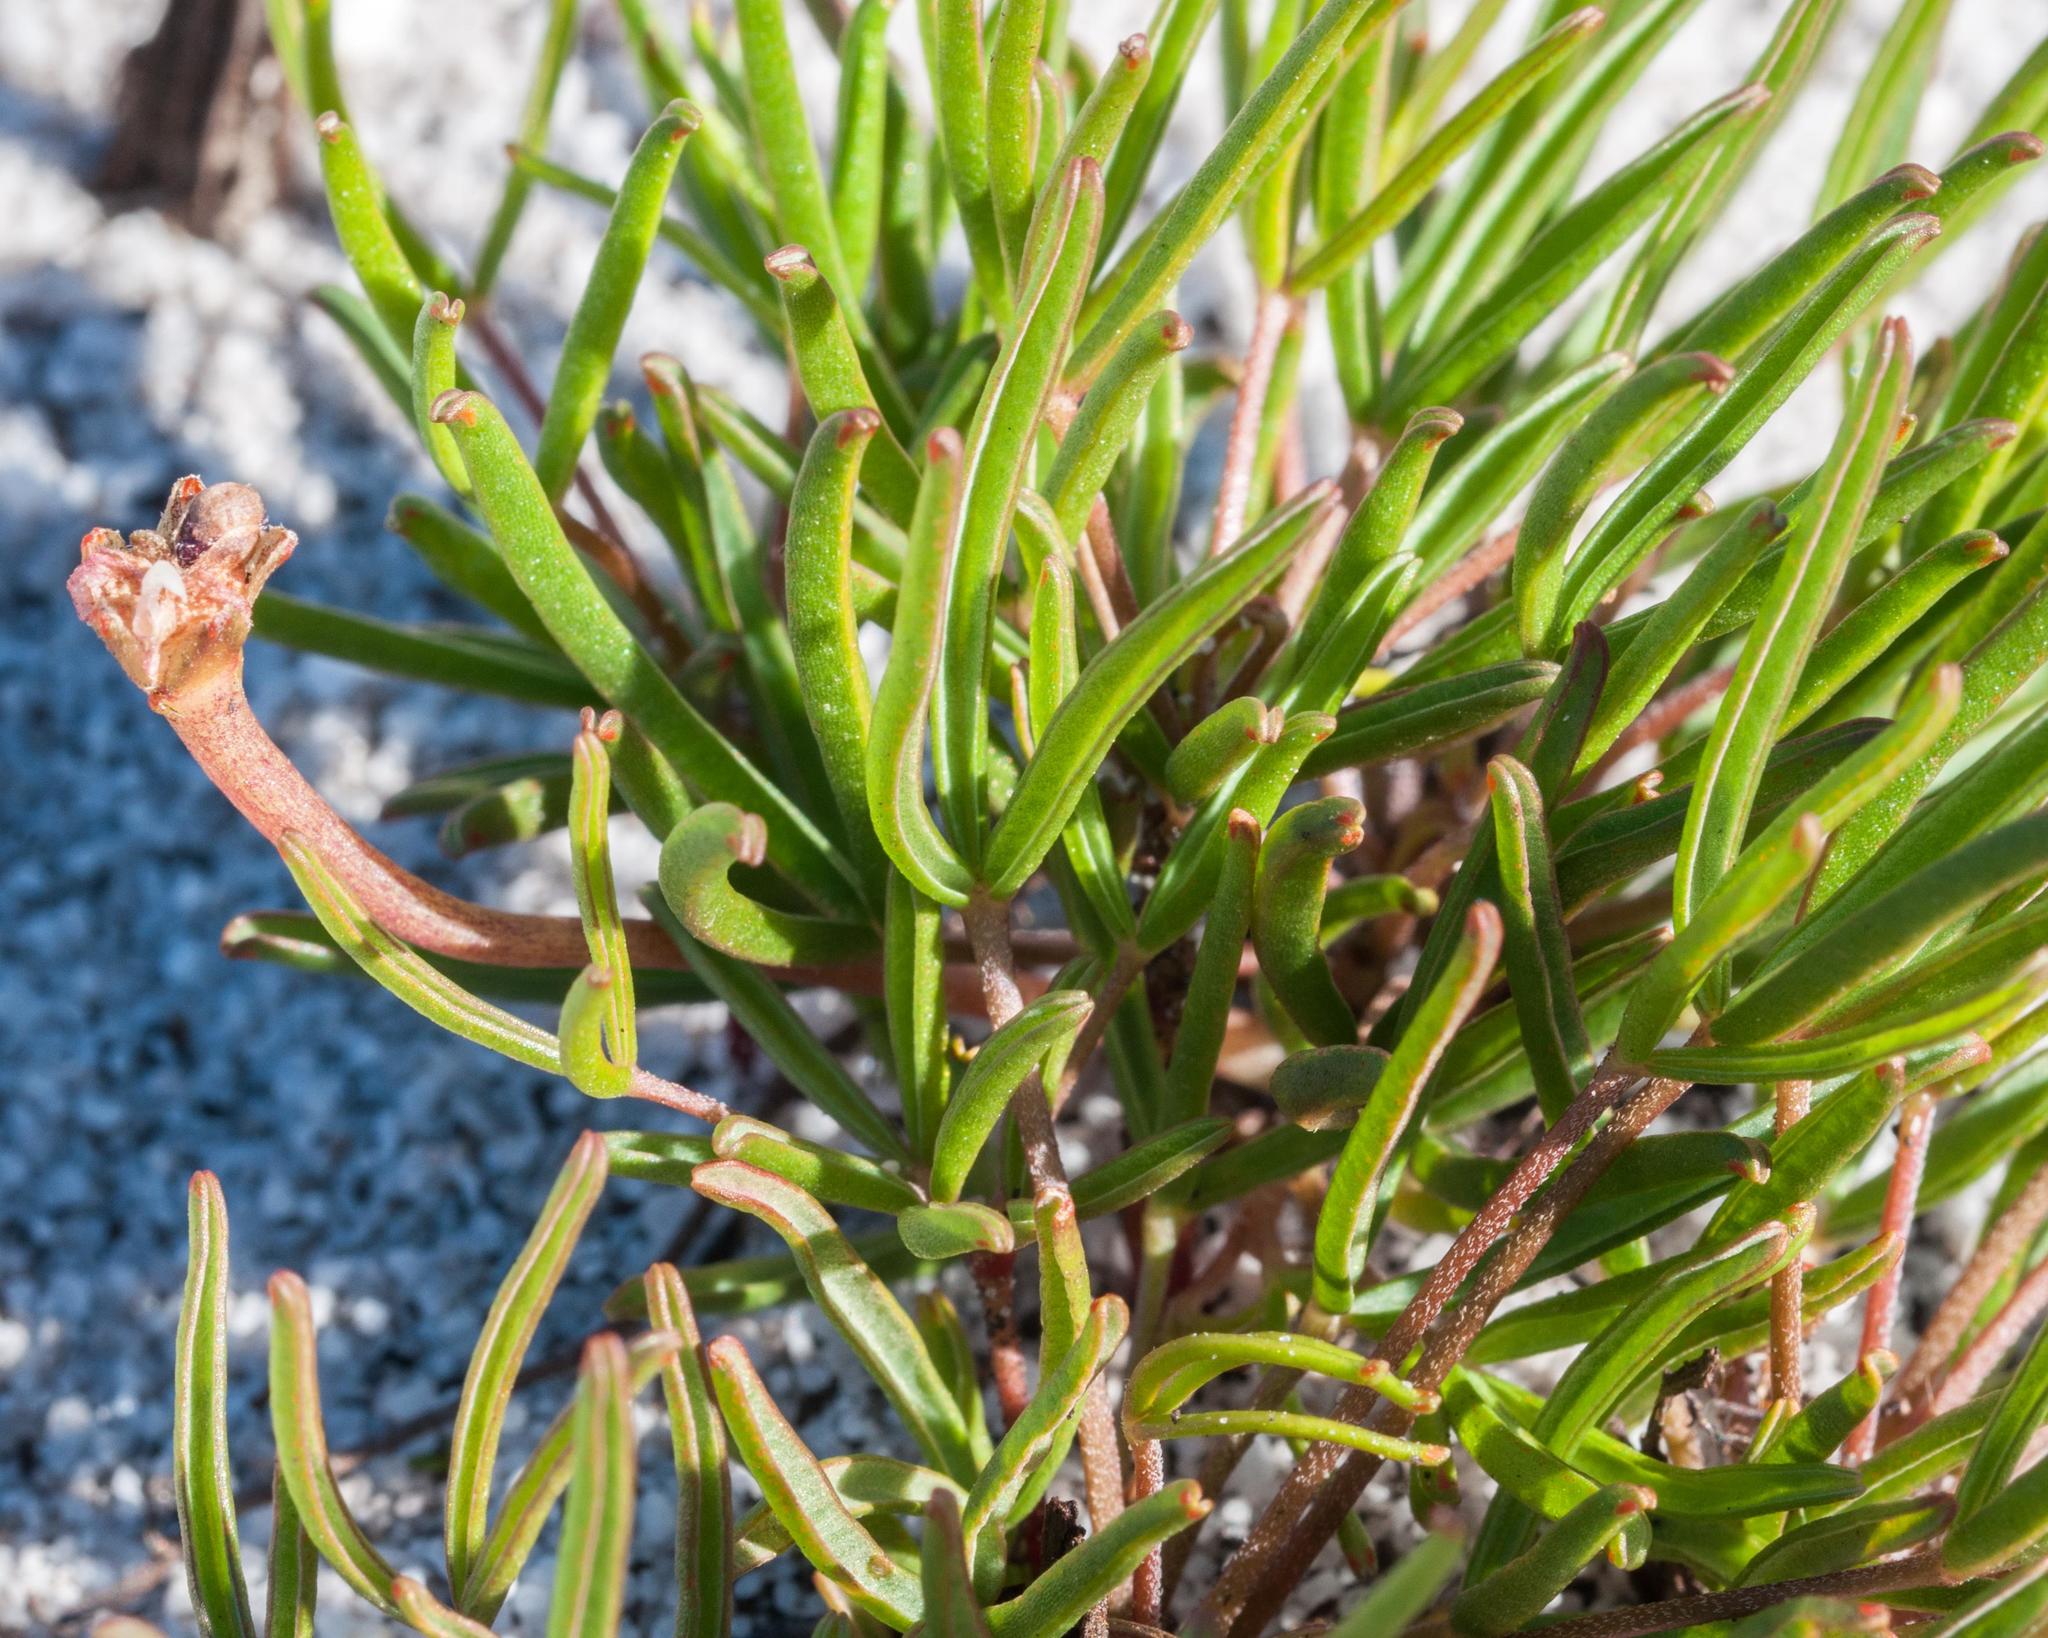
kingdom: Plantae
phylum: Tracheophyta
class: Magnoliopsida
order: Oxalidales
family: Oxalidaceae
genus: Oxalis
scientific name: Oxalis polyphylla
